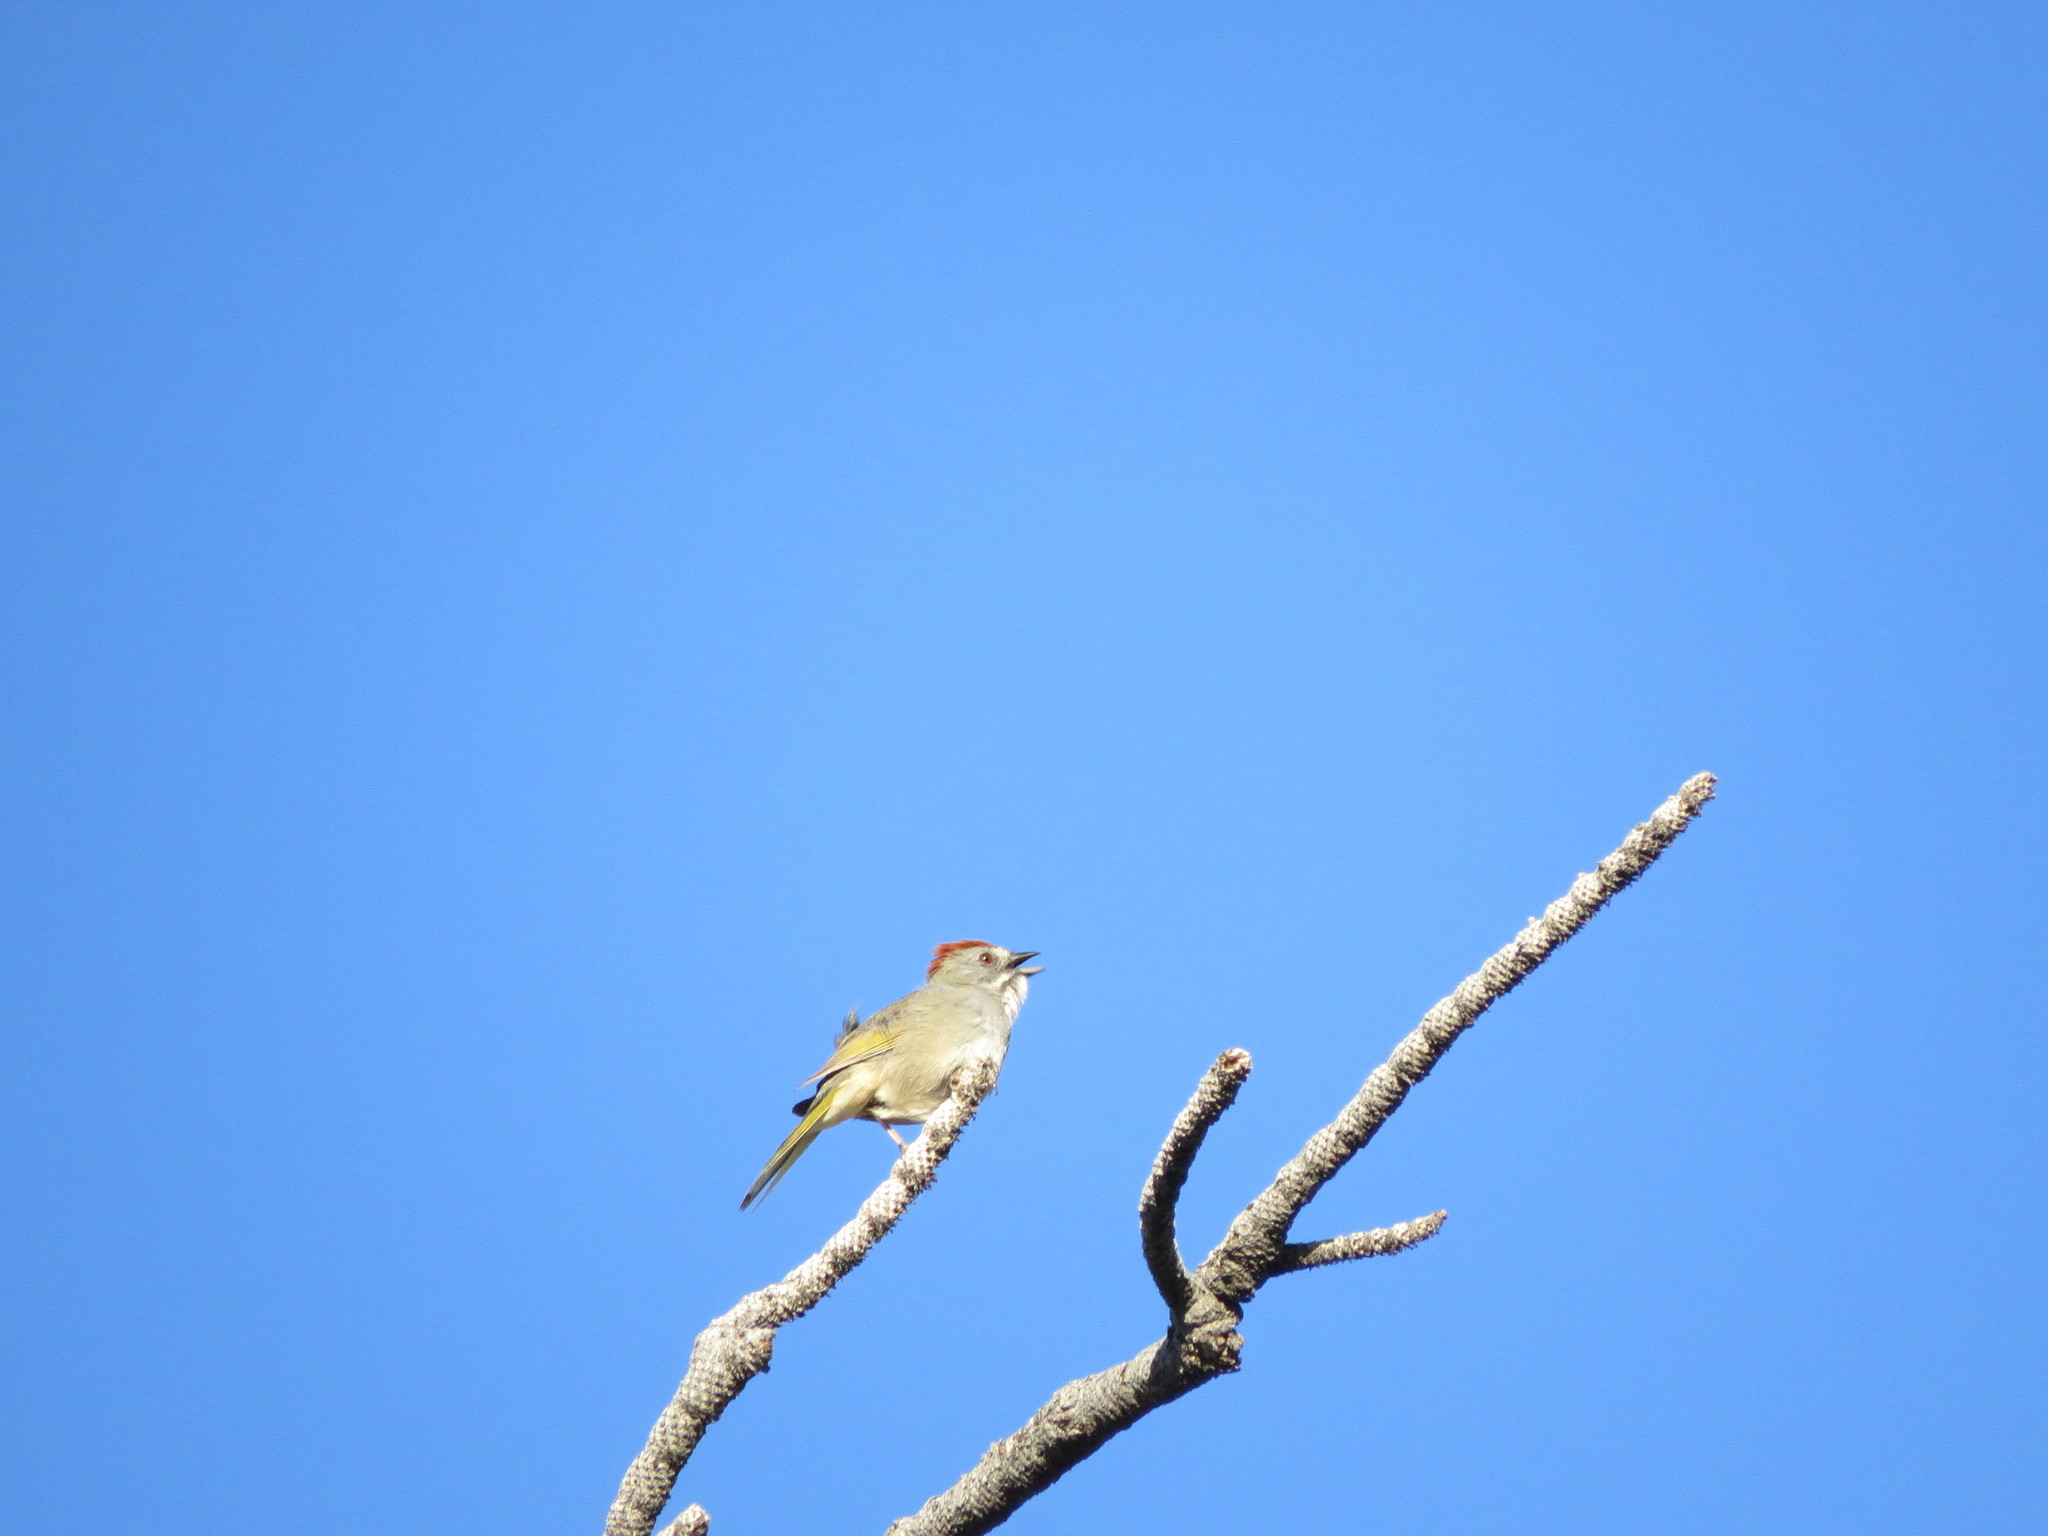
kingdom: Animalia
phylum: Chordata
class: Aves
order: Passeriformes
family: Passerellidae
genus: Pipilo
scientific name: Pipilo chlorurus
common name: Green-tailed towhee
